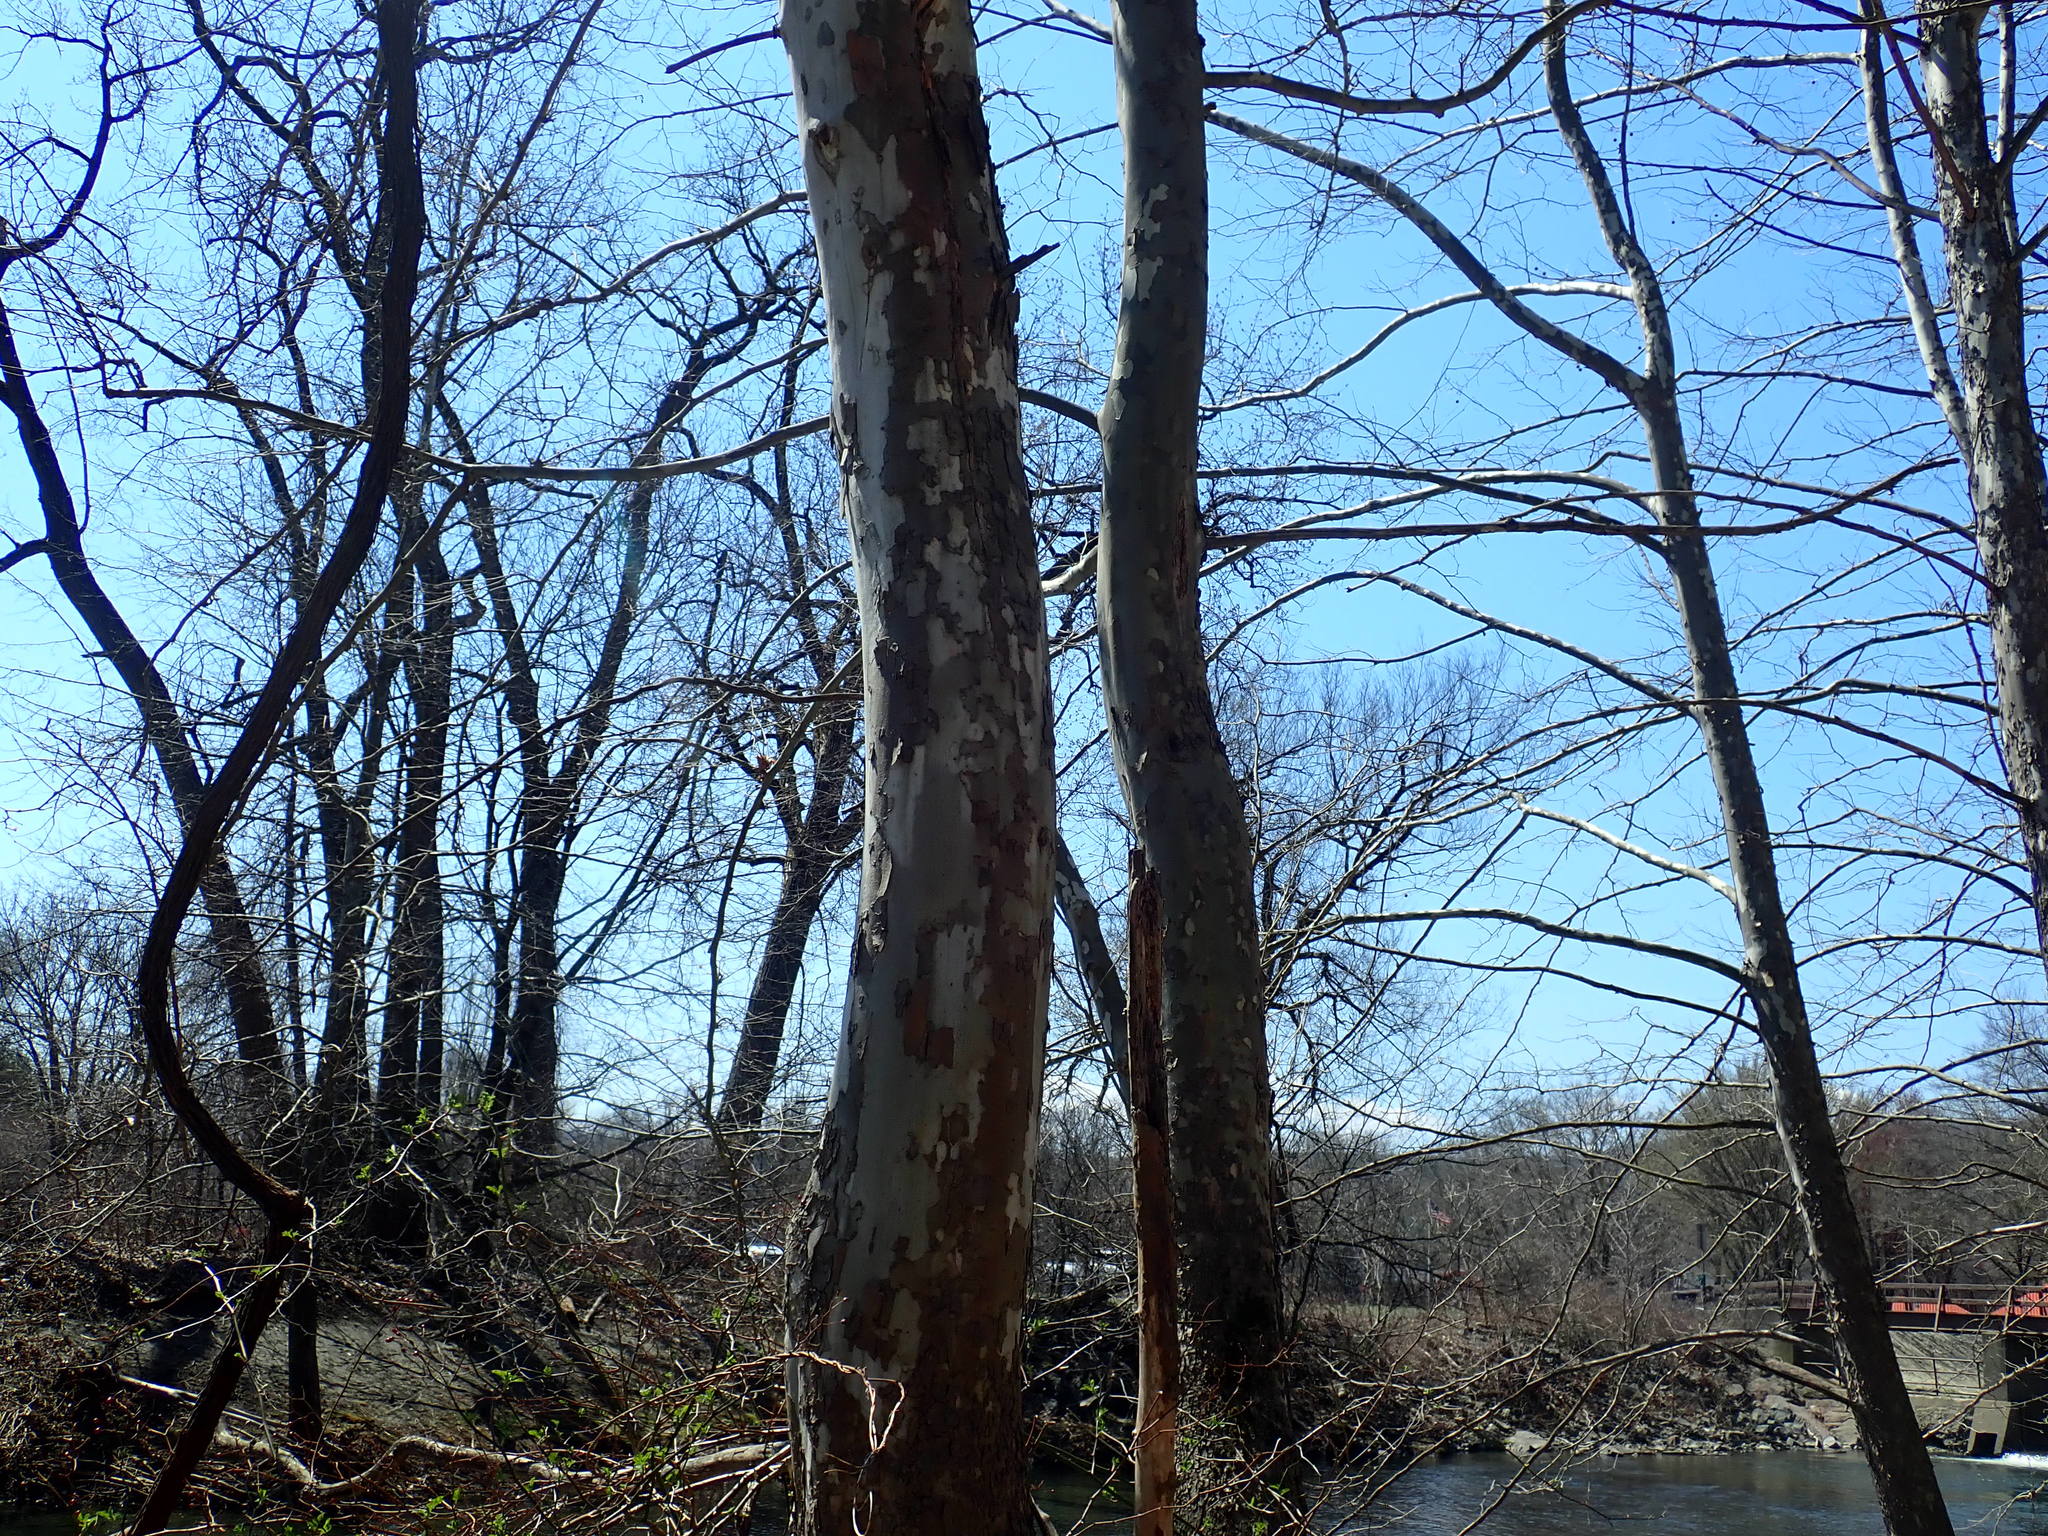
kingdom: Plantae
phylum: Tracheophyta
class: Magnoliopsida
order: Proteales
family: Platanaceae
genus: Platanus
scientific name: Platanus occidentalis
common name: American sycamore
